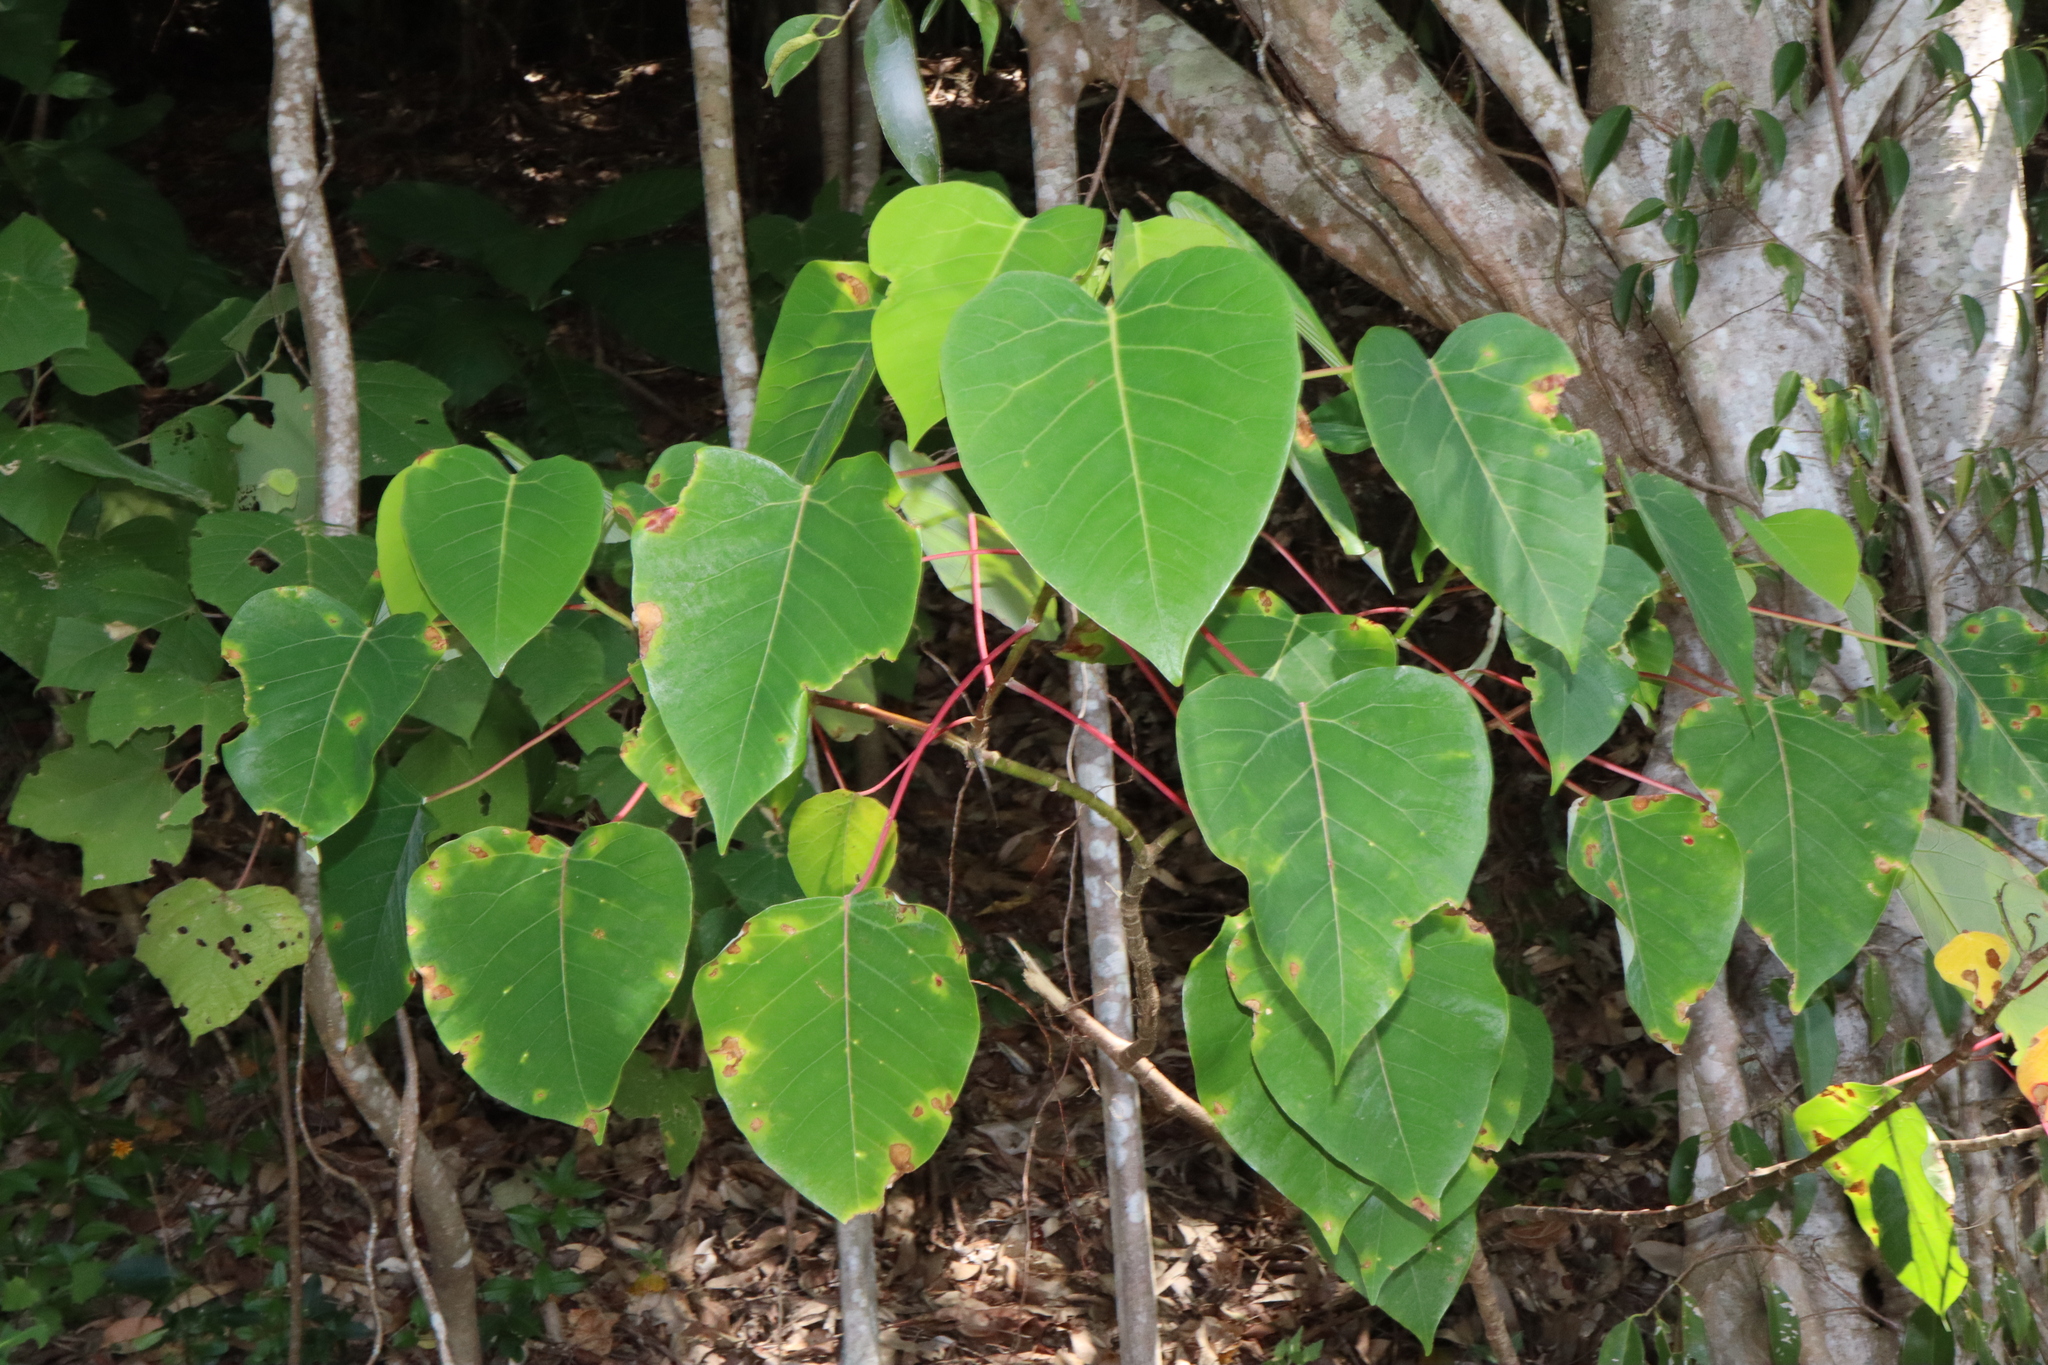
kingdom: Plantae
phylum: Tracheophyta
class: Magnoliopsida
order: Malpighiales
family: Euphorbiaceae
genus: Homalanthus
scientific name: Homalanthus novoguineensis
